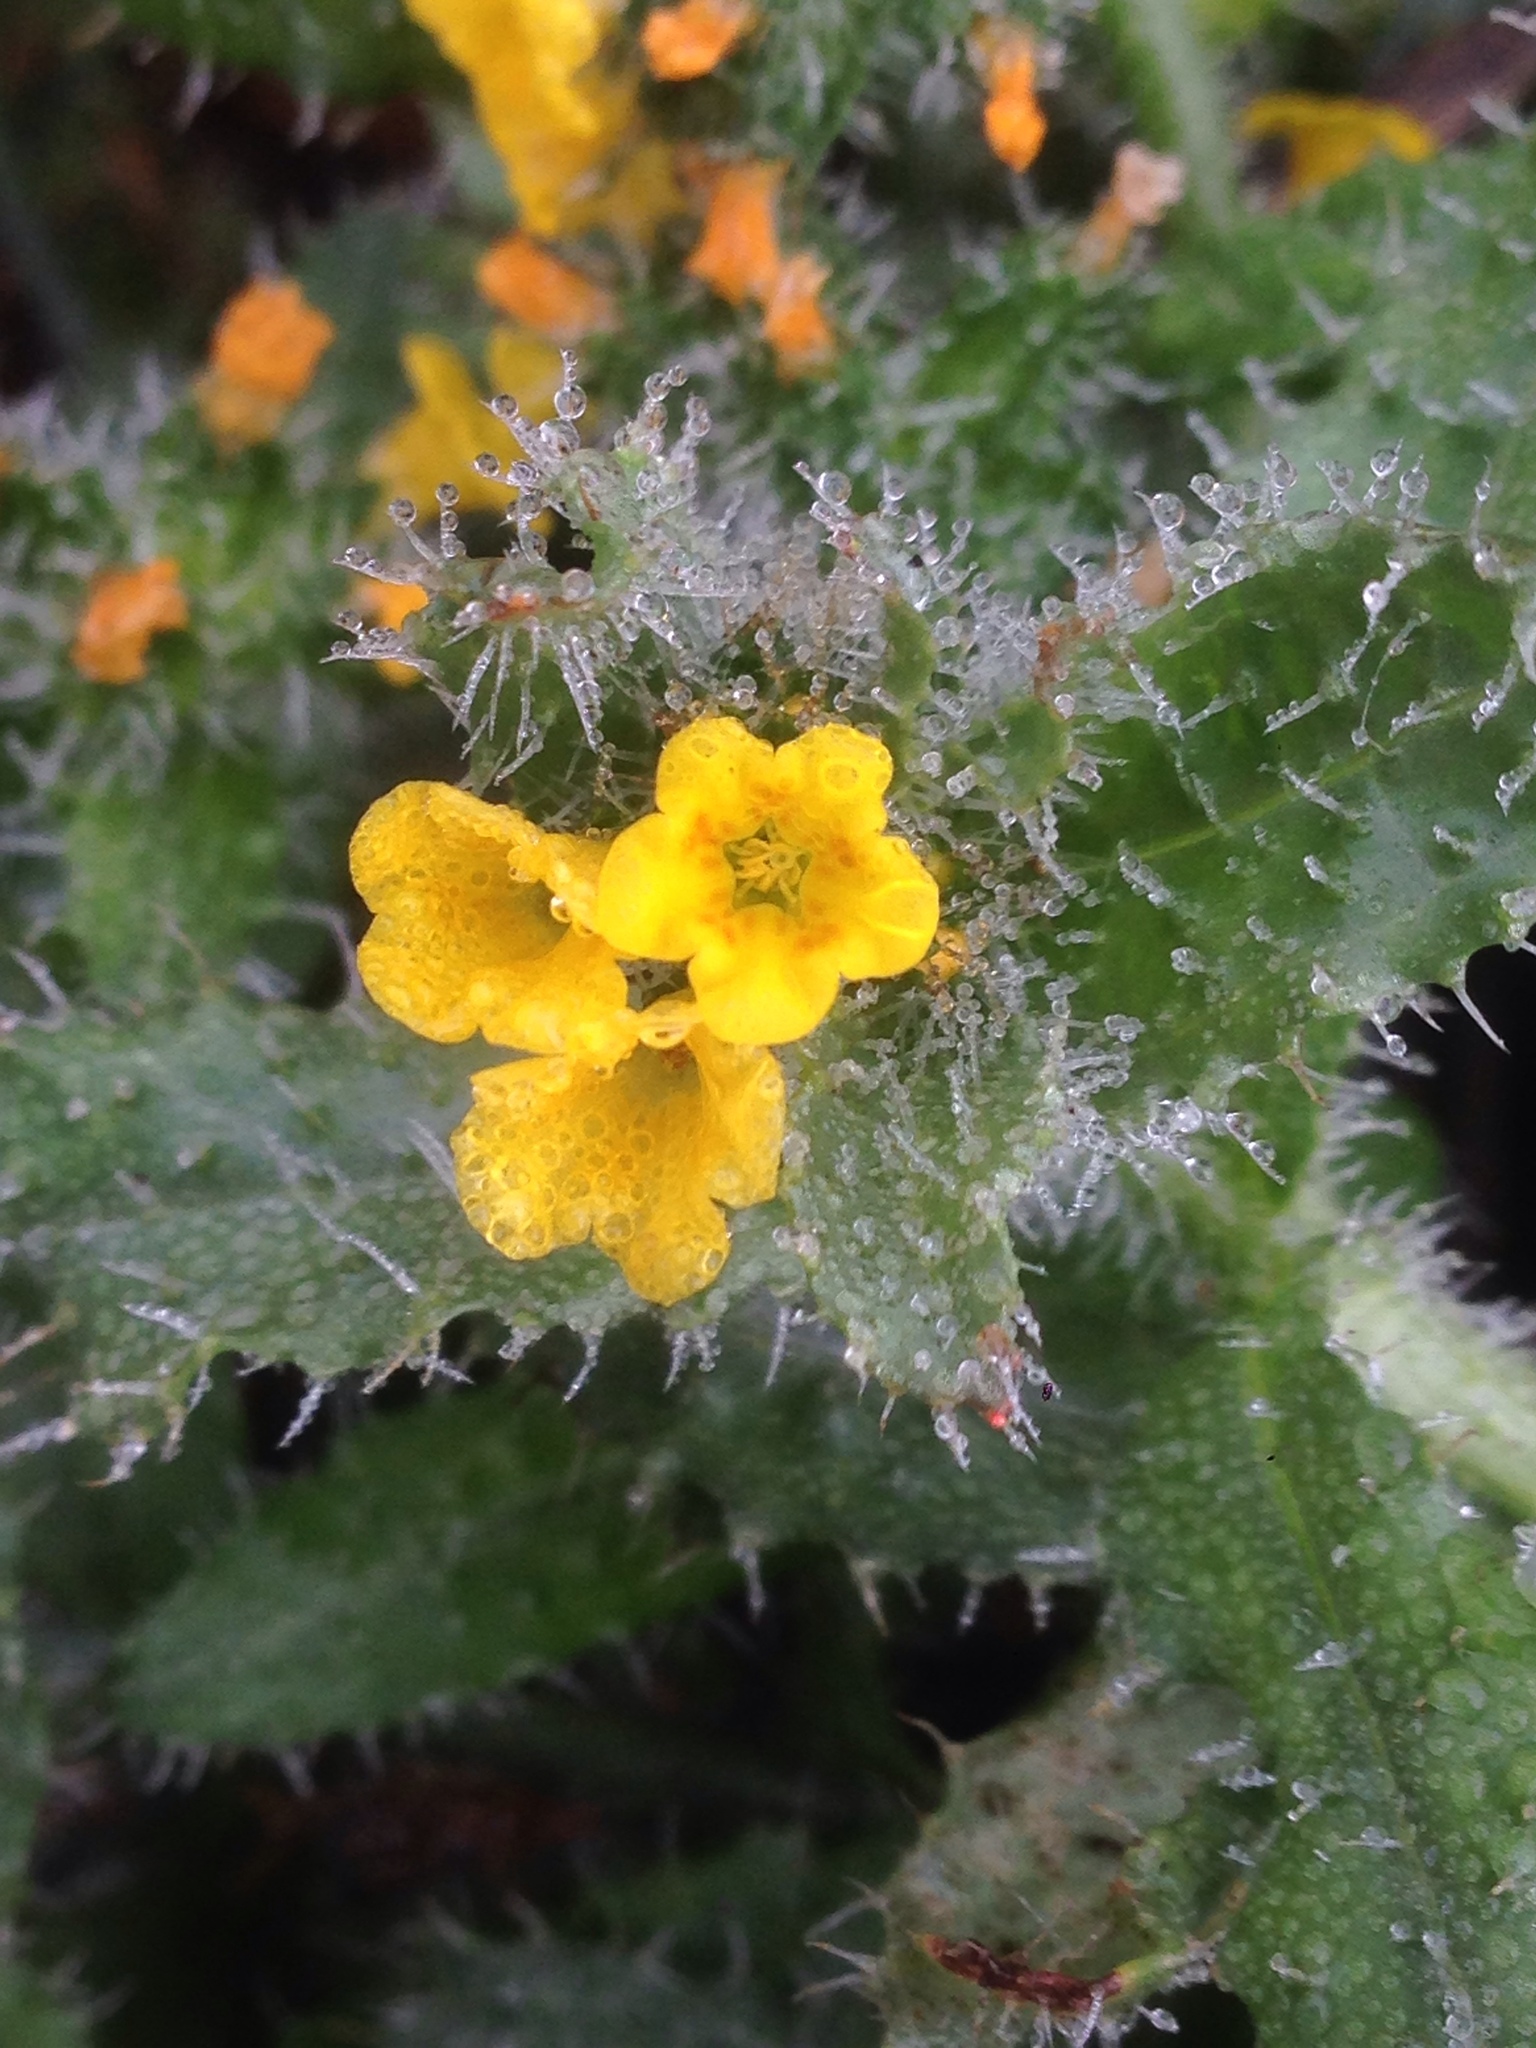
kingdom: Plantae
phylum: Tracheophyta
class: Magnoliopsida
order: Boraginales
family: Boraginaceae
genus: Amsinckia
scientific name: Amsinckia spectabilis
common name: Seaside fiddleneck
